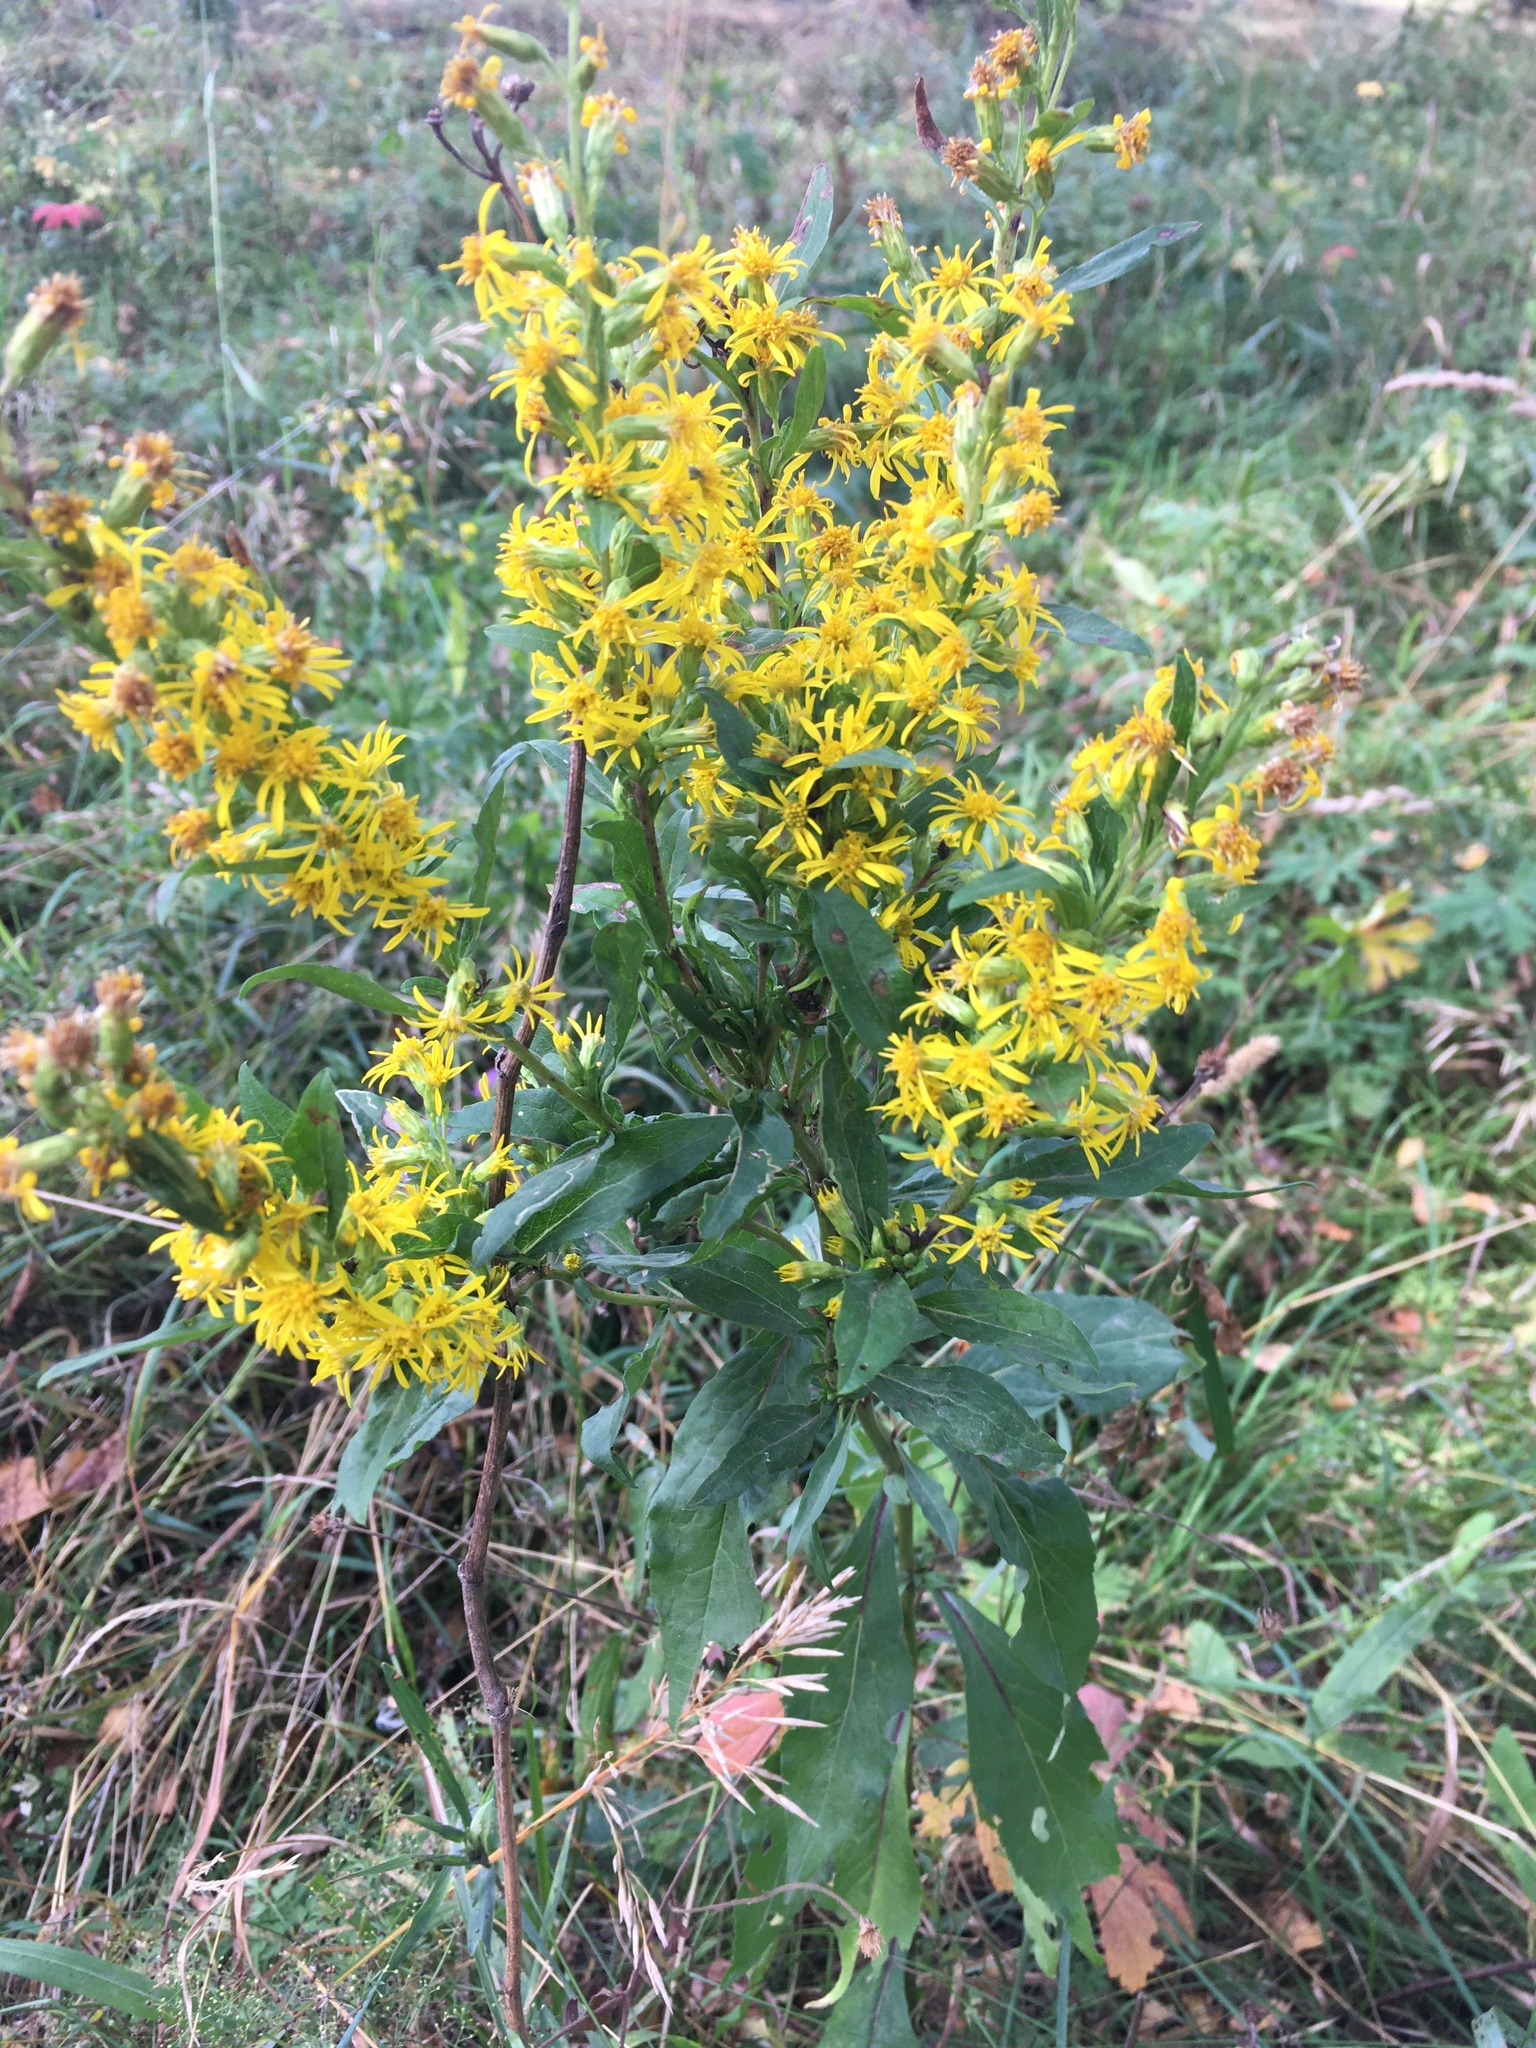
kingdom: Plantae
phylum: Tracheophyta
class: Magnoliopsida
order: Asterales
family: Asteraceae
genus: Solidago
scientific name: Solidago virgaurea
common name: Goldenrod
